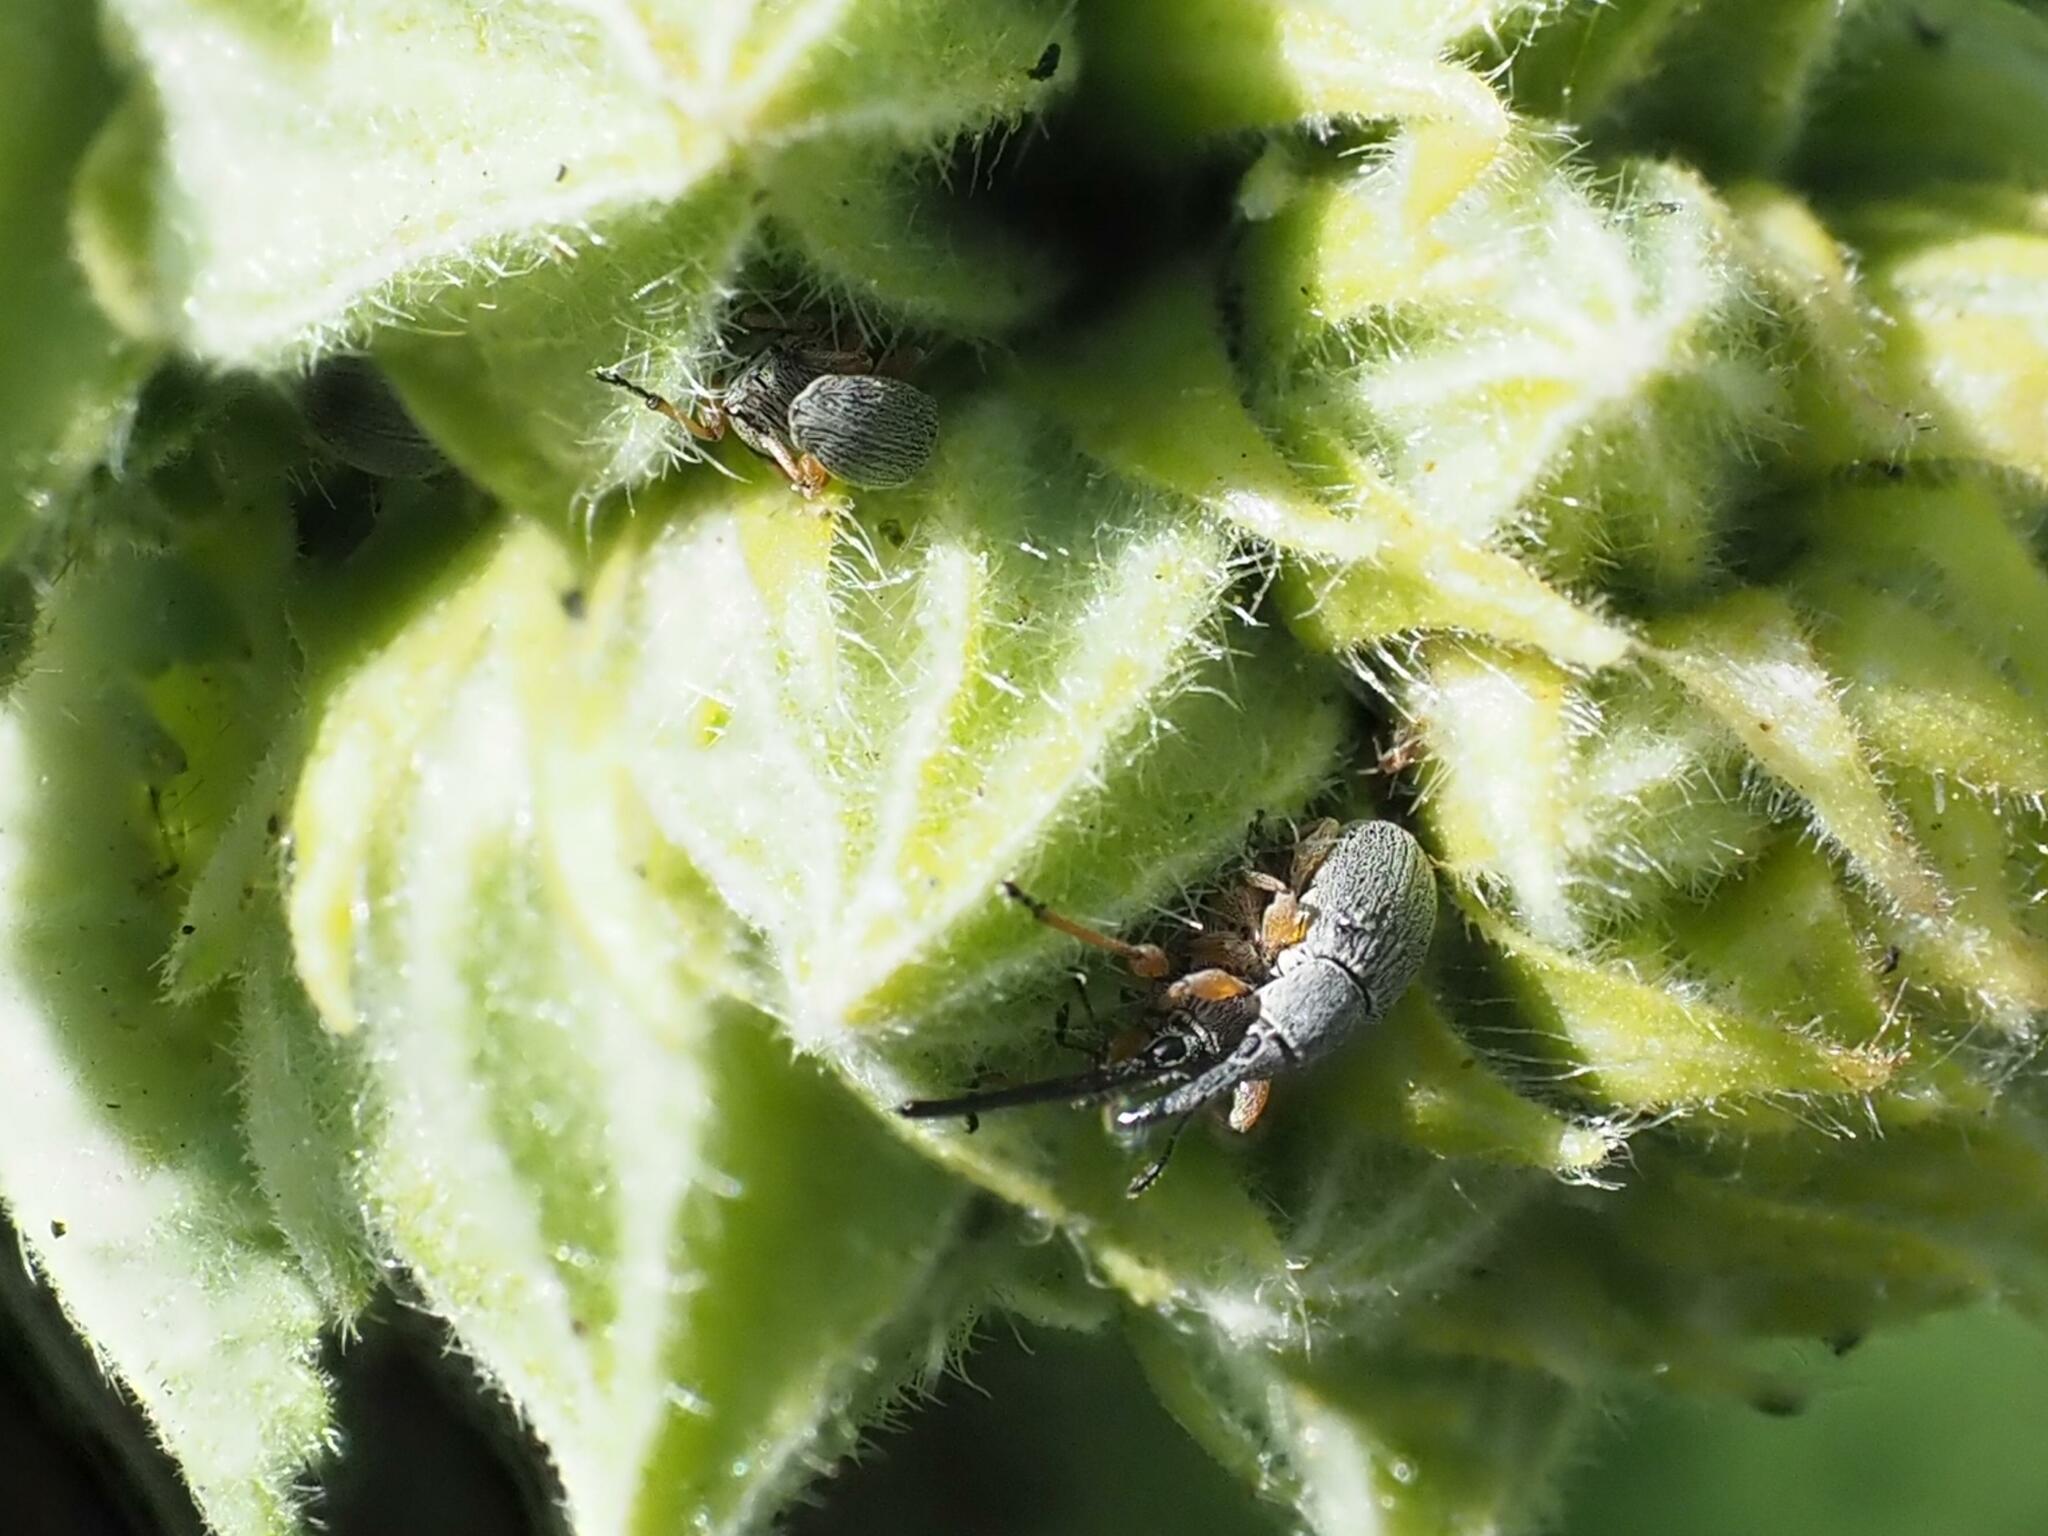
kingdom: Animalia
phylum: Arthropoda
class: Insecta
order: Coleoptera
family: Brentidae
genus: Rhopalapion
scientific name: Rhopalapion longirostre
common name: Hollyhock weevil
